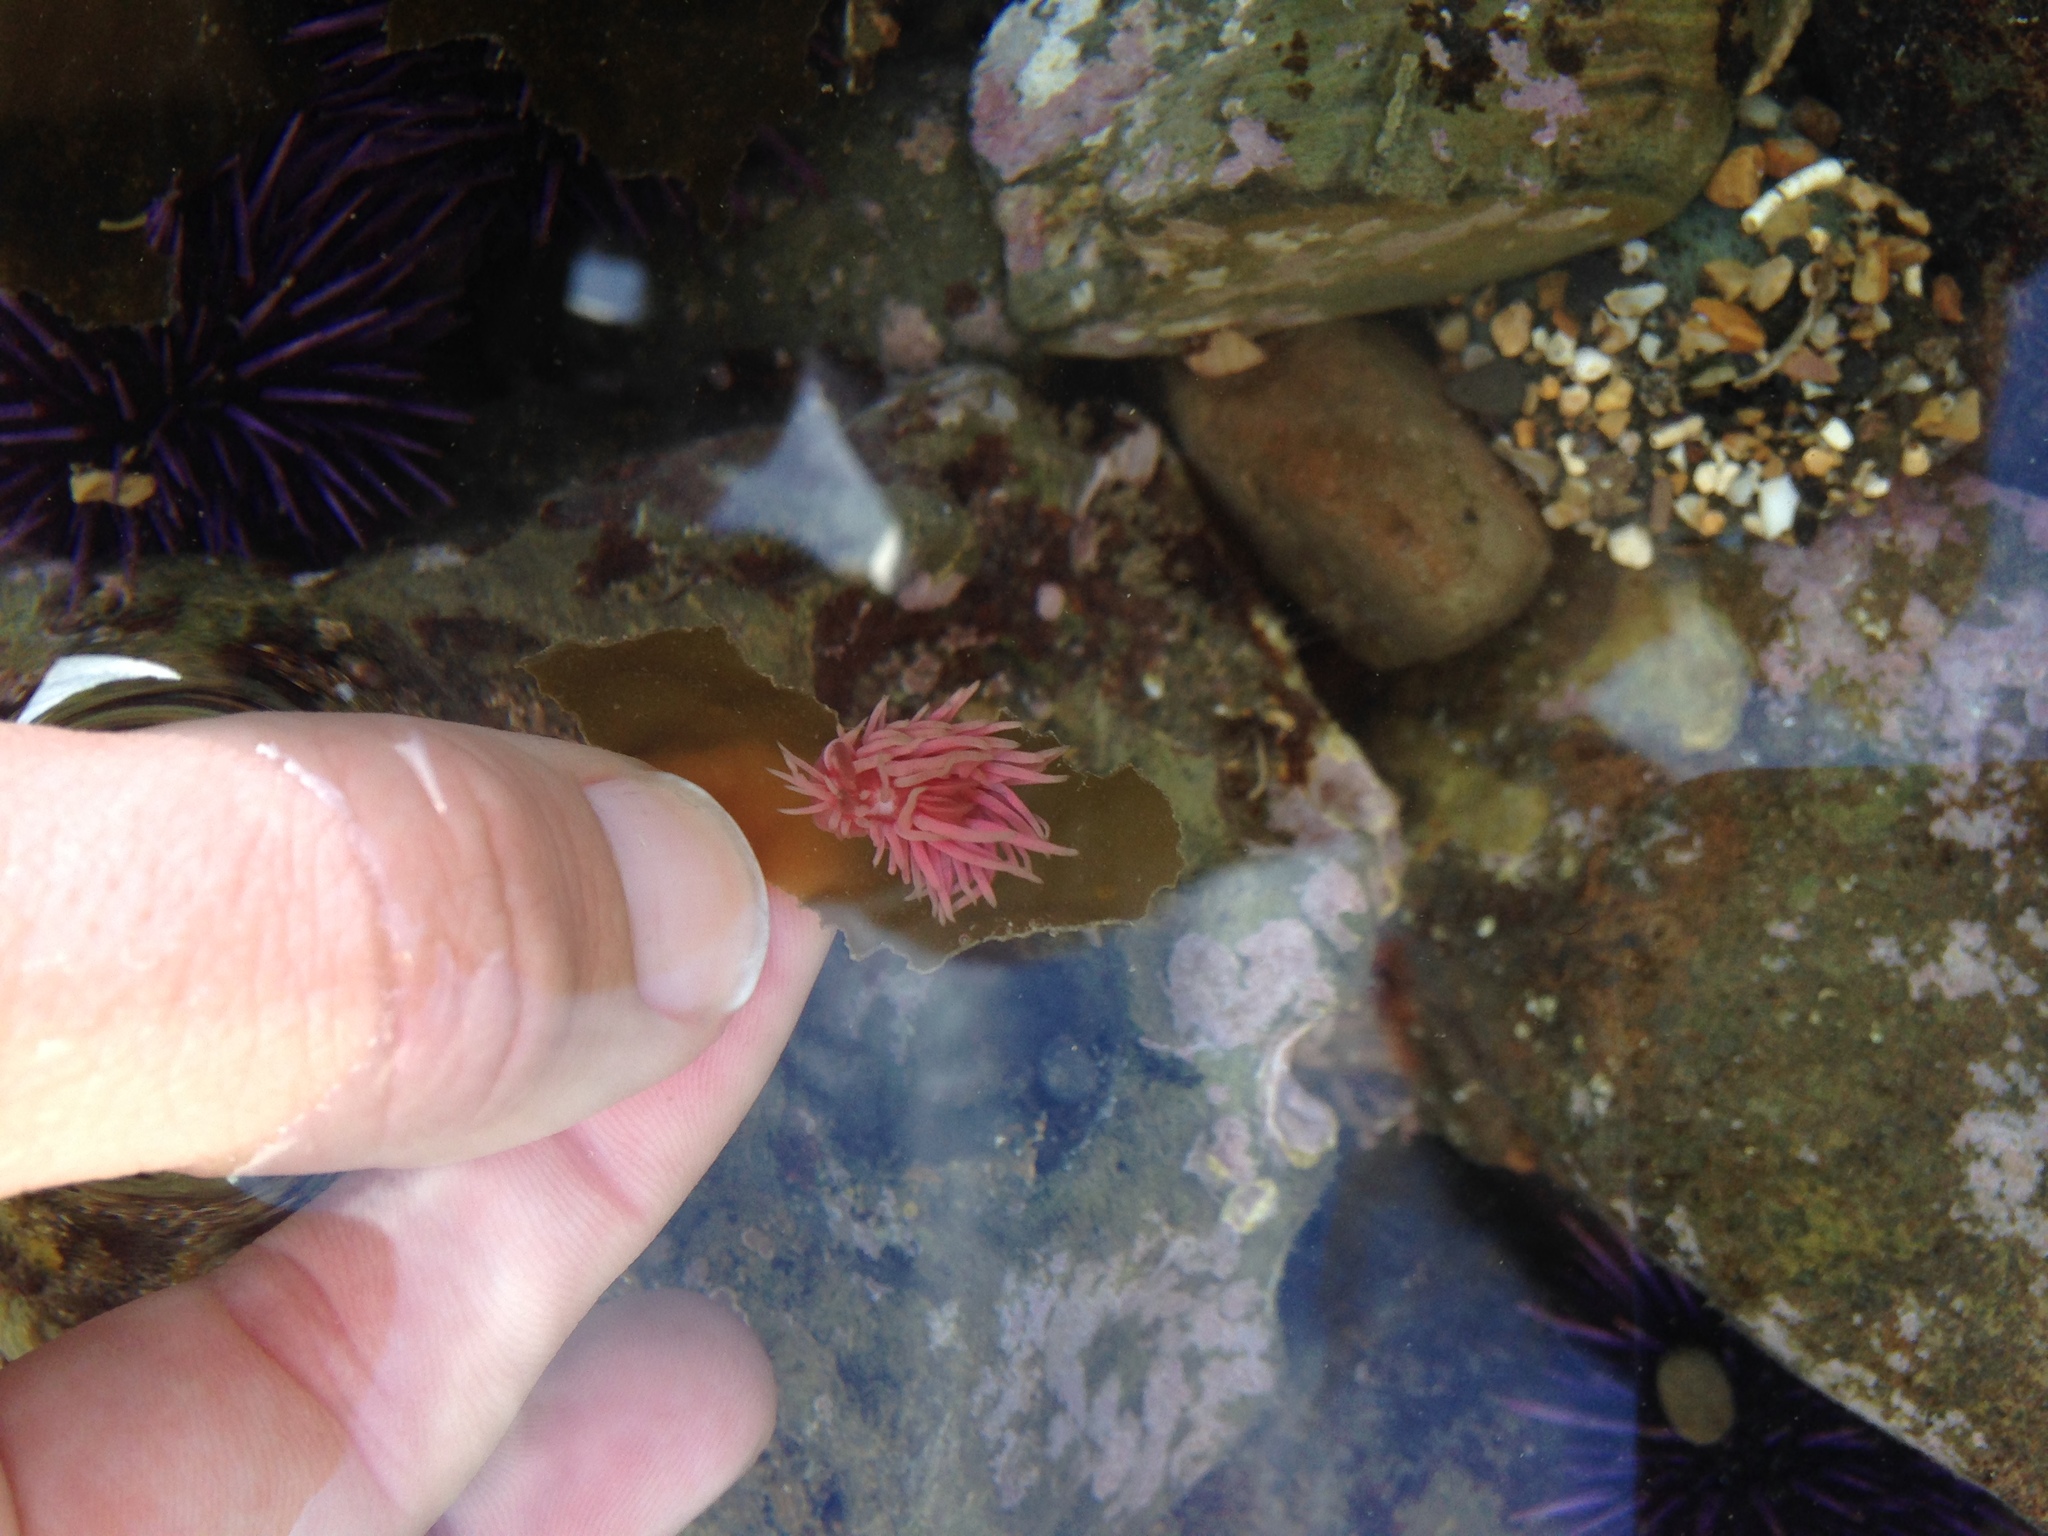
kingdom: Animalia
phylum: Mollusca
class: Gastropoda
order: Nudibranchia
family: Goniodorididae
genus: Okenia
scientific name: Okenia
